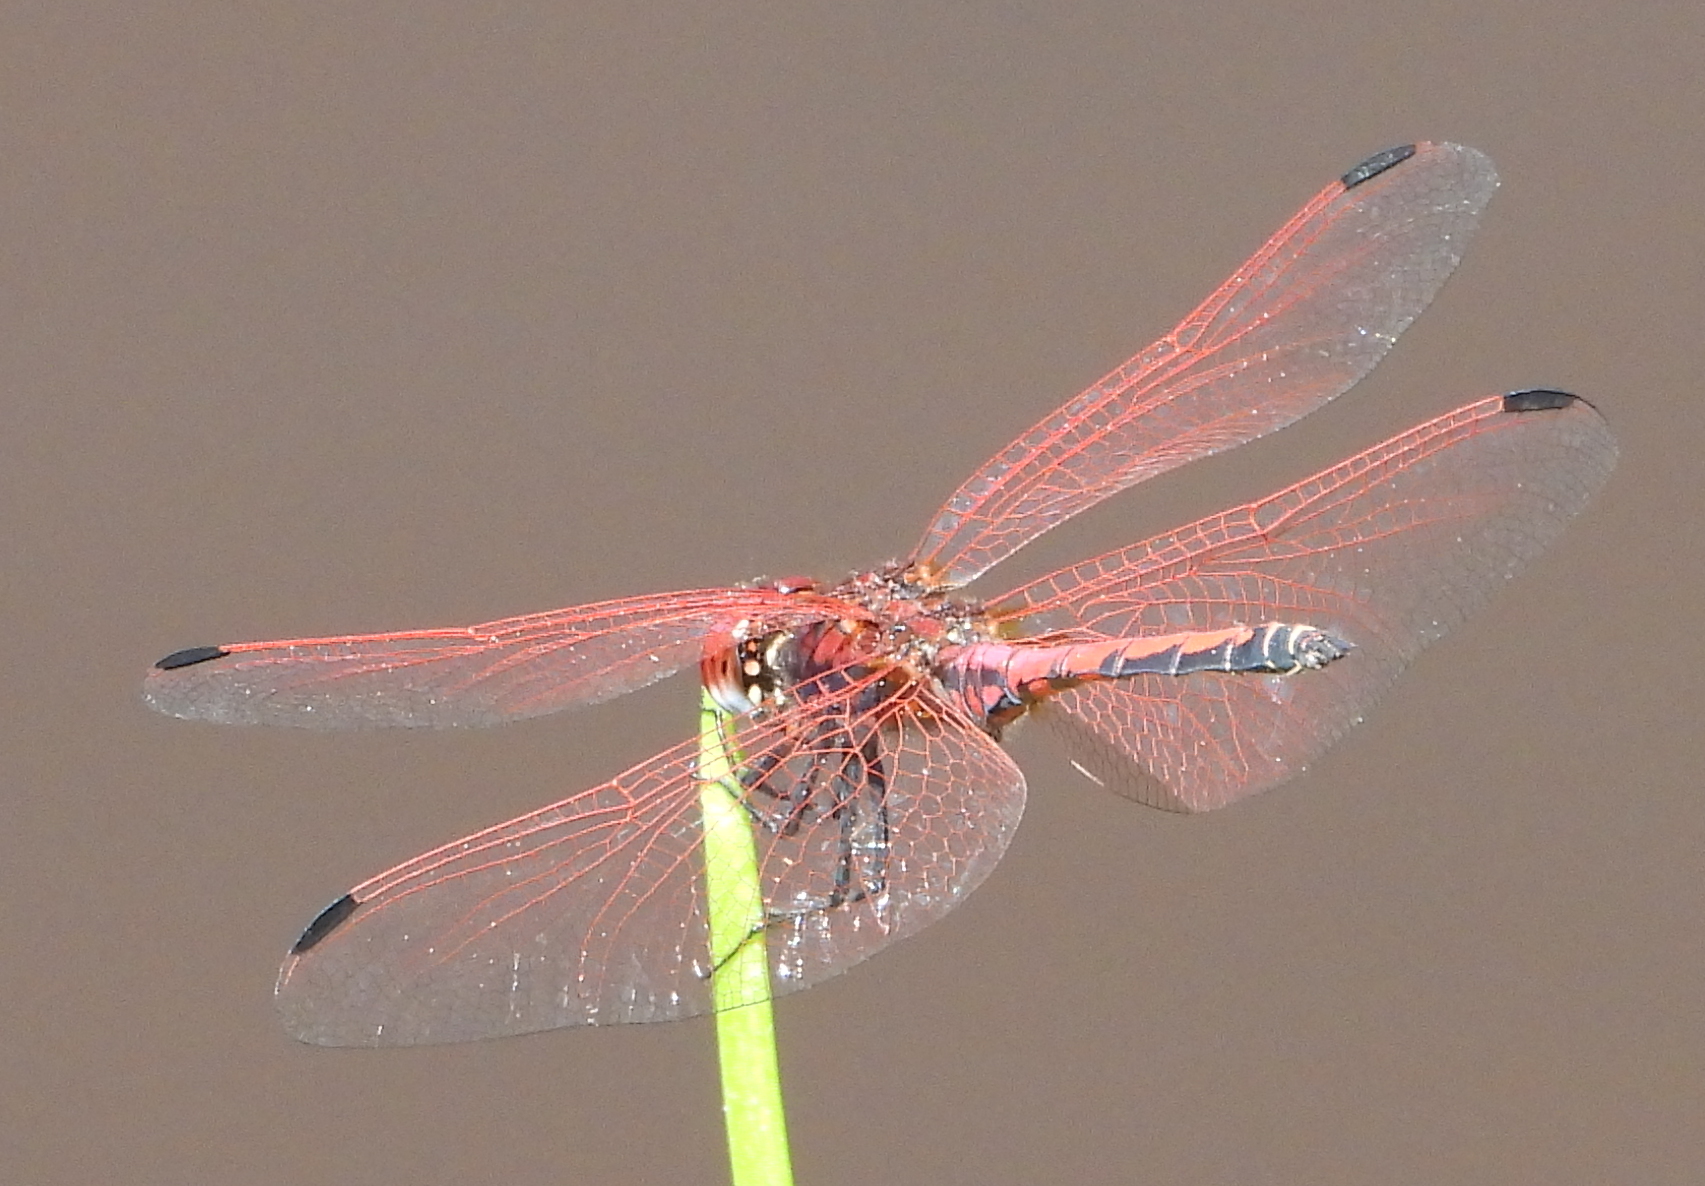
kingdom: Animalia
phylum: Arthropoda
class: Insecta
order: Odonata
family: Libellulidae
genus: Trithemis
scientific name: Trithemis arteriosa
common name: Red-veined dropwing
